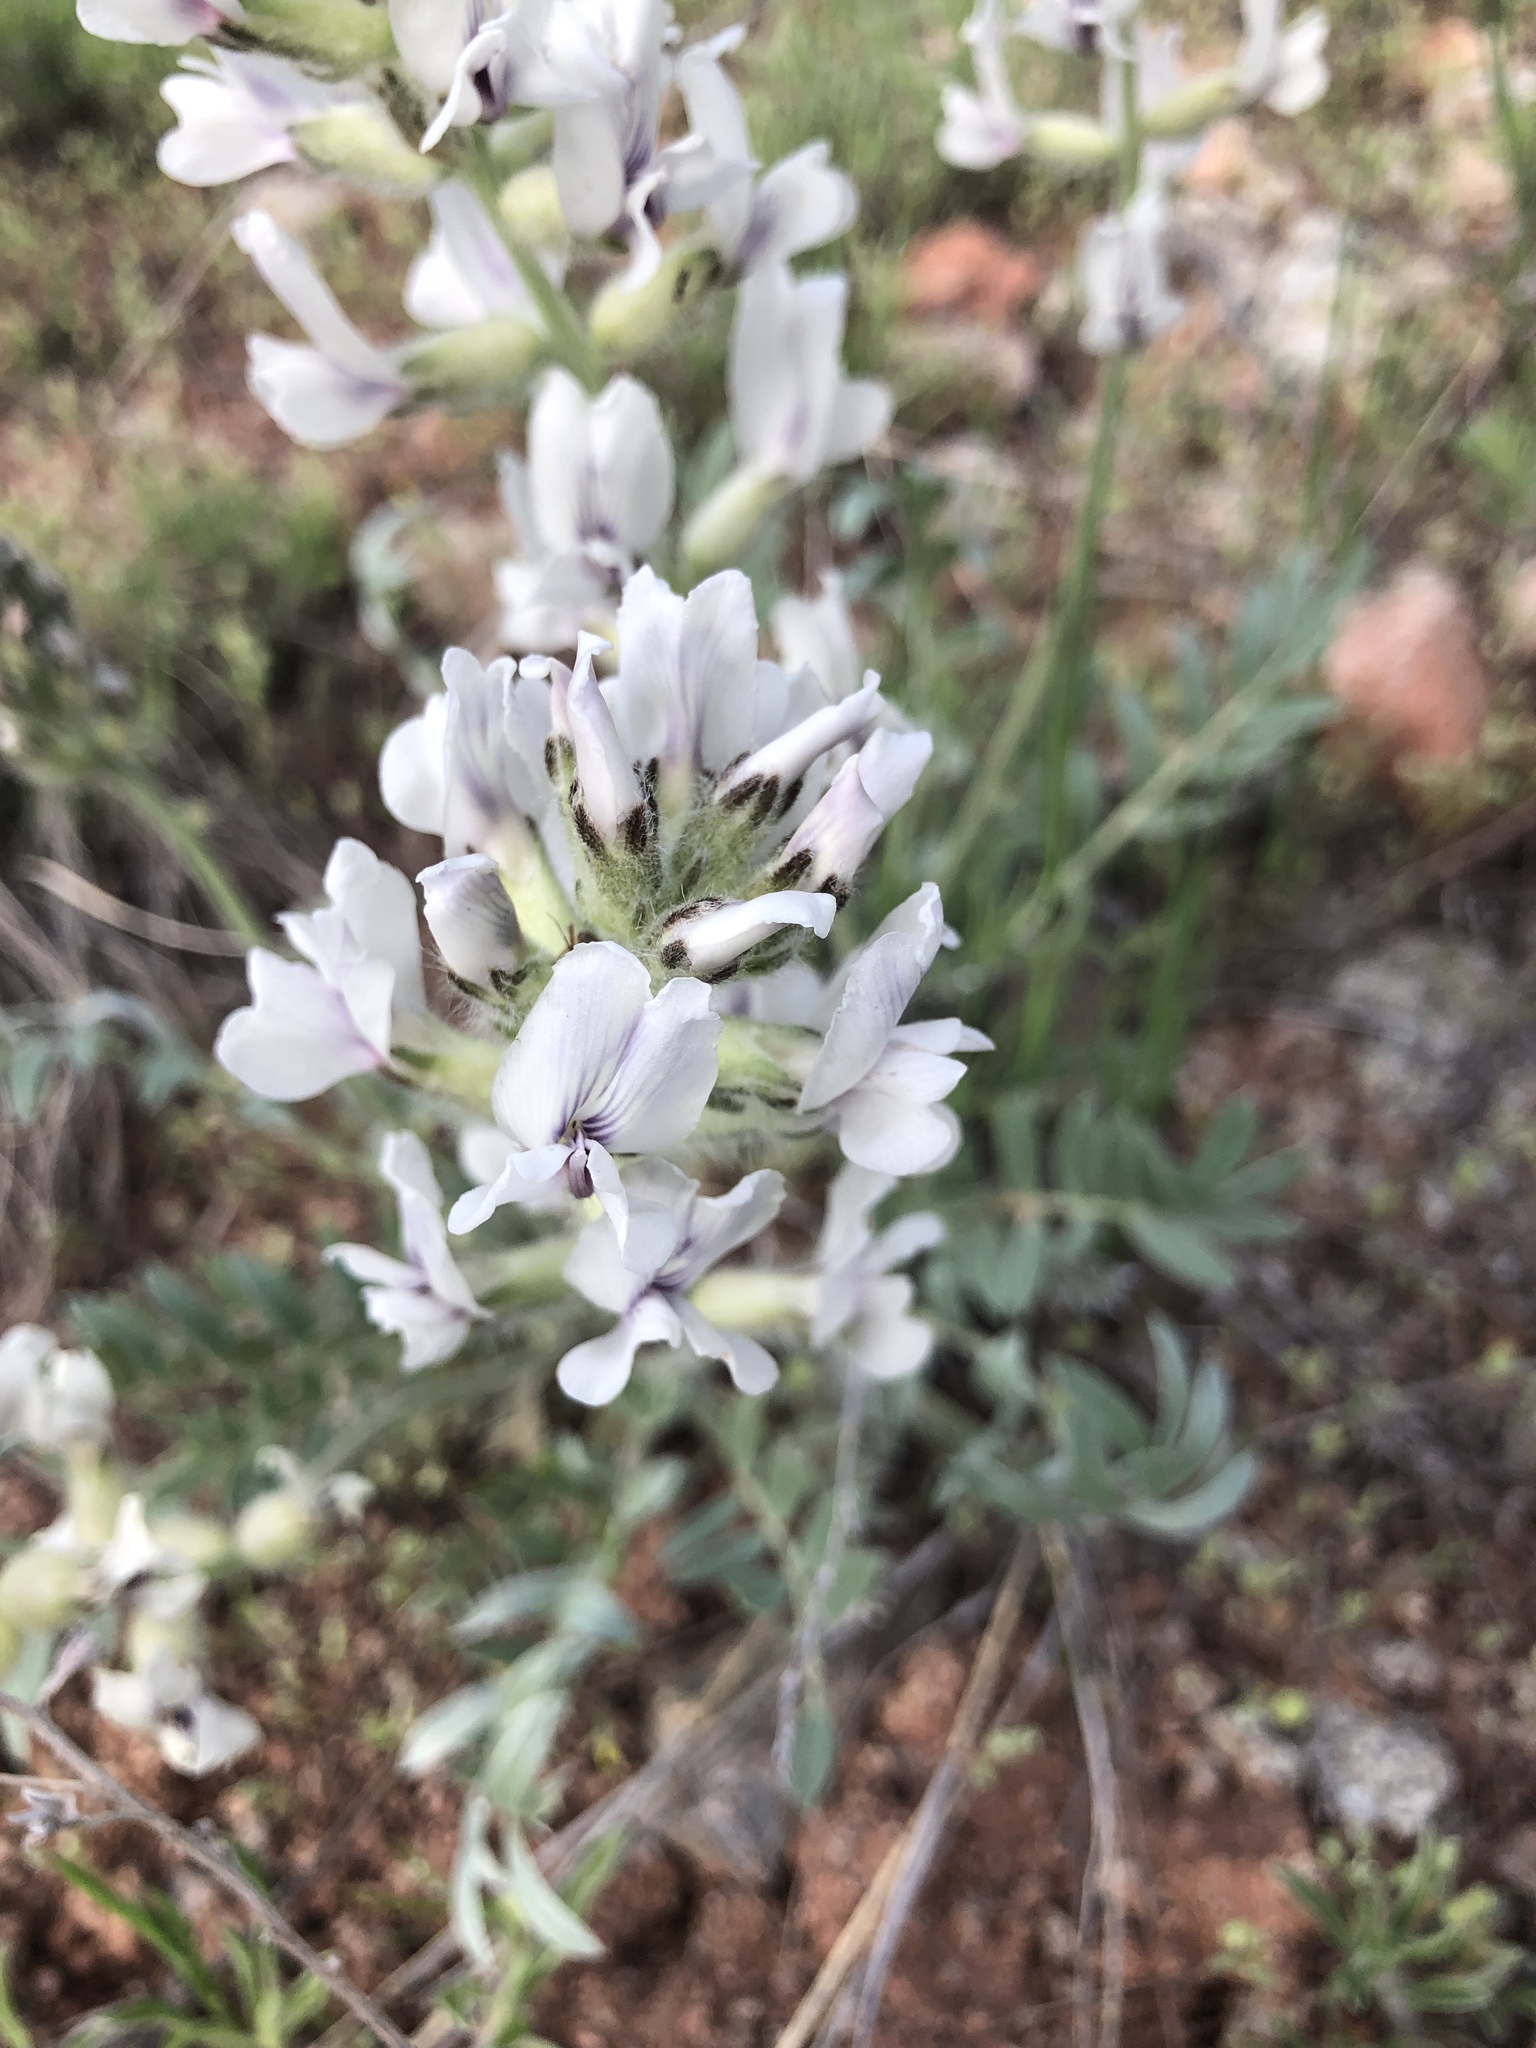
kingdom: Plantae
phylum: Tracheophyta
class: Magnoliopsida
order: Fabales
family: Fabaceae
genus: Oxytropis
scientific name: Oxytropis sericea
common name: Silky locoweed
